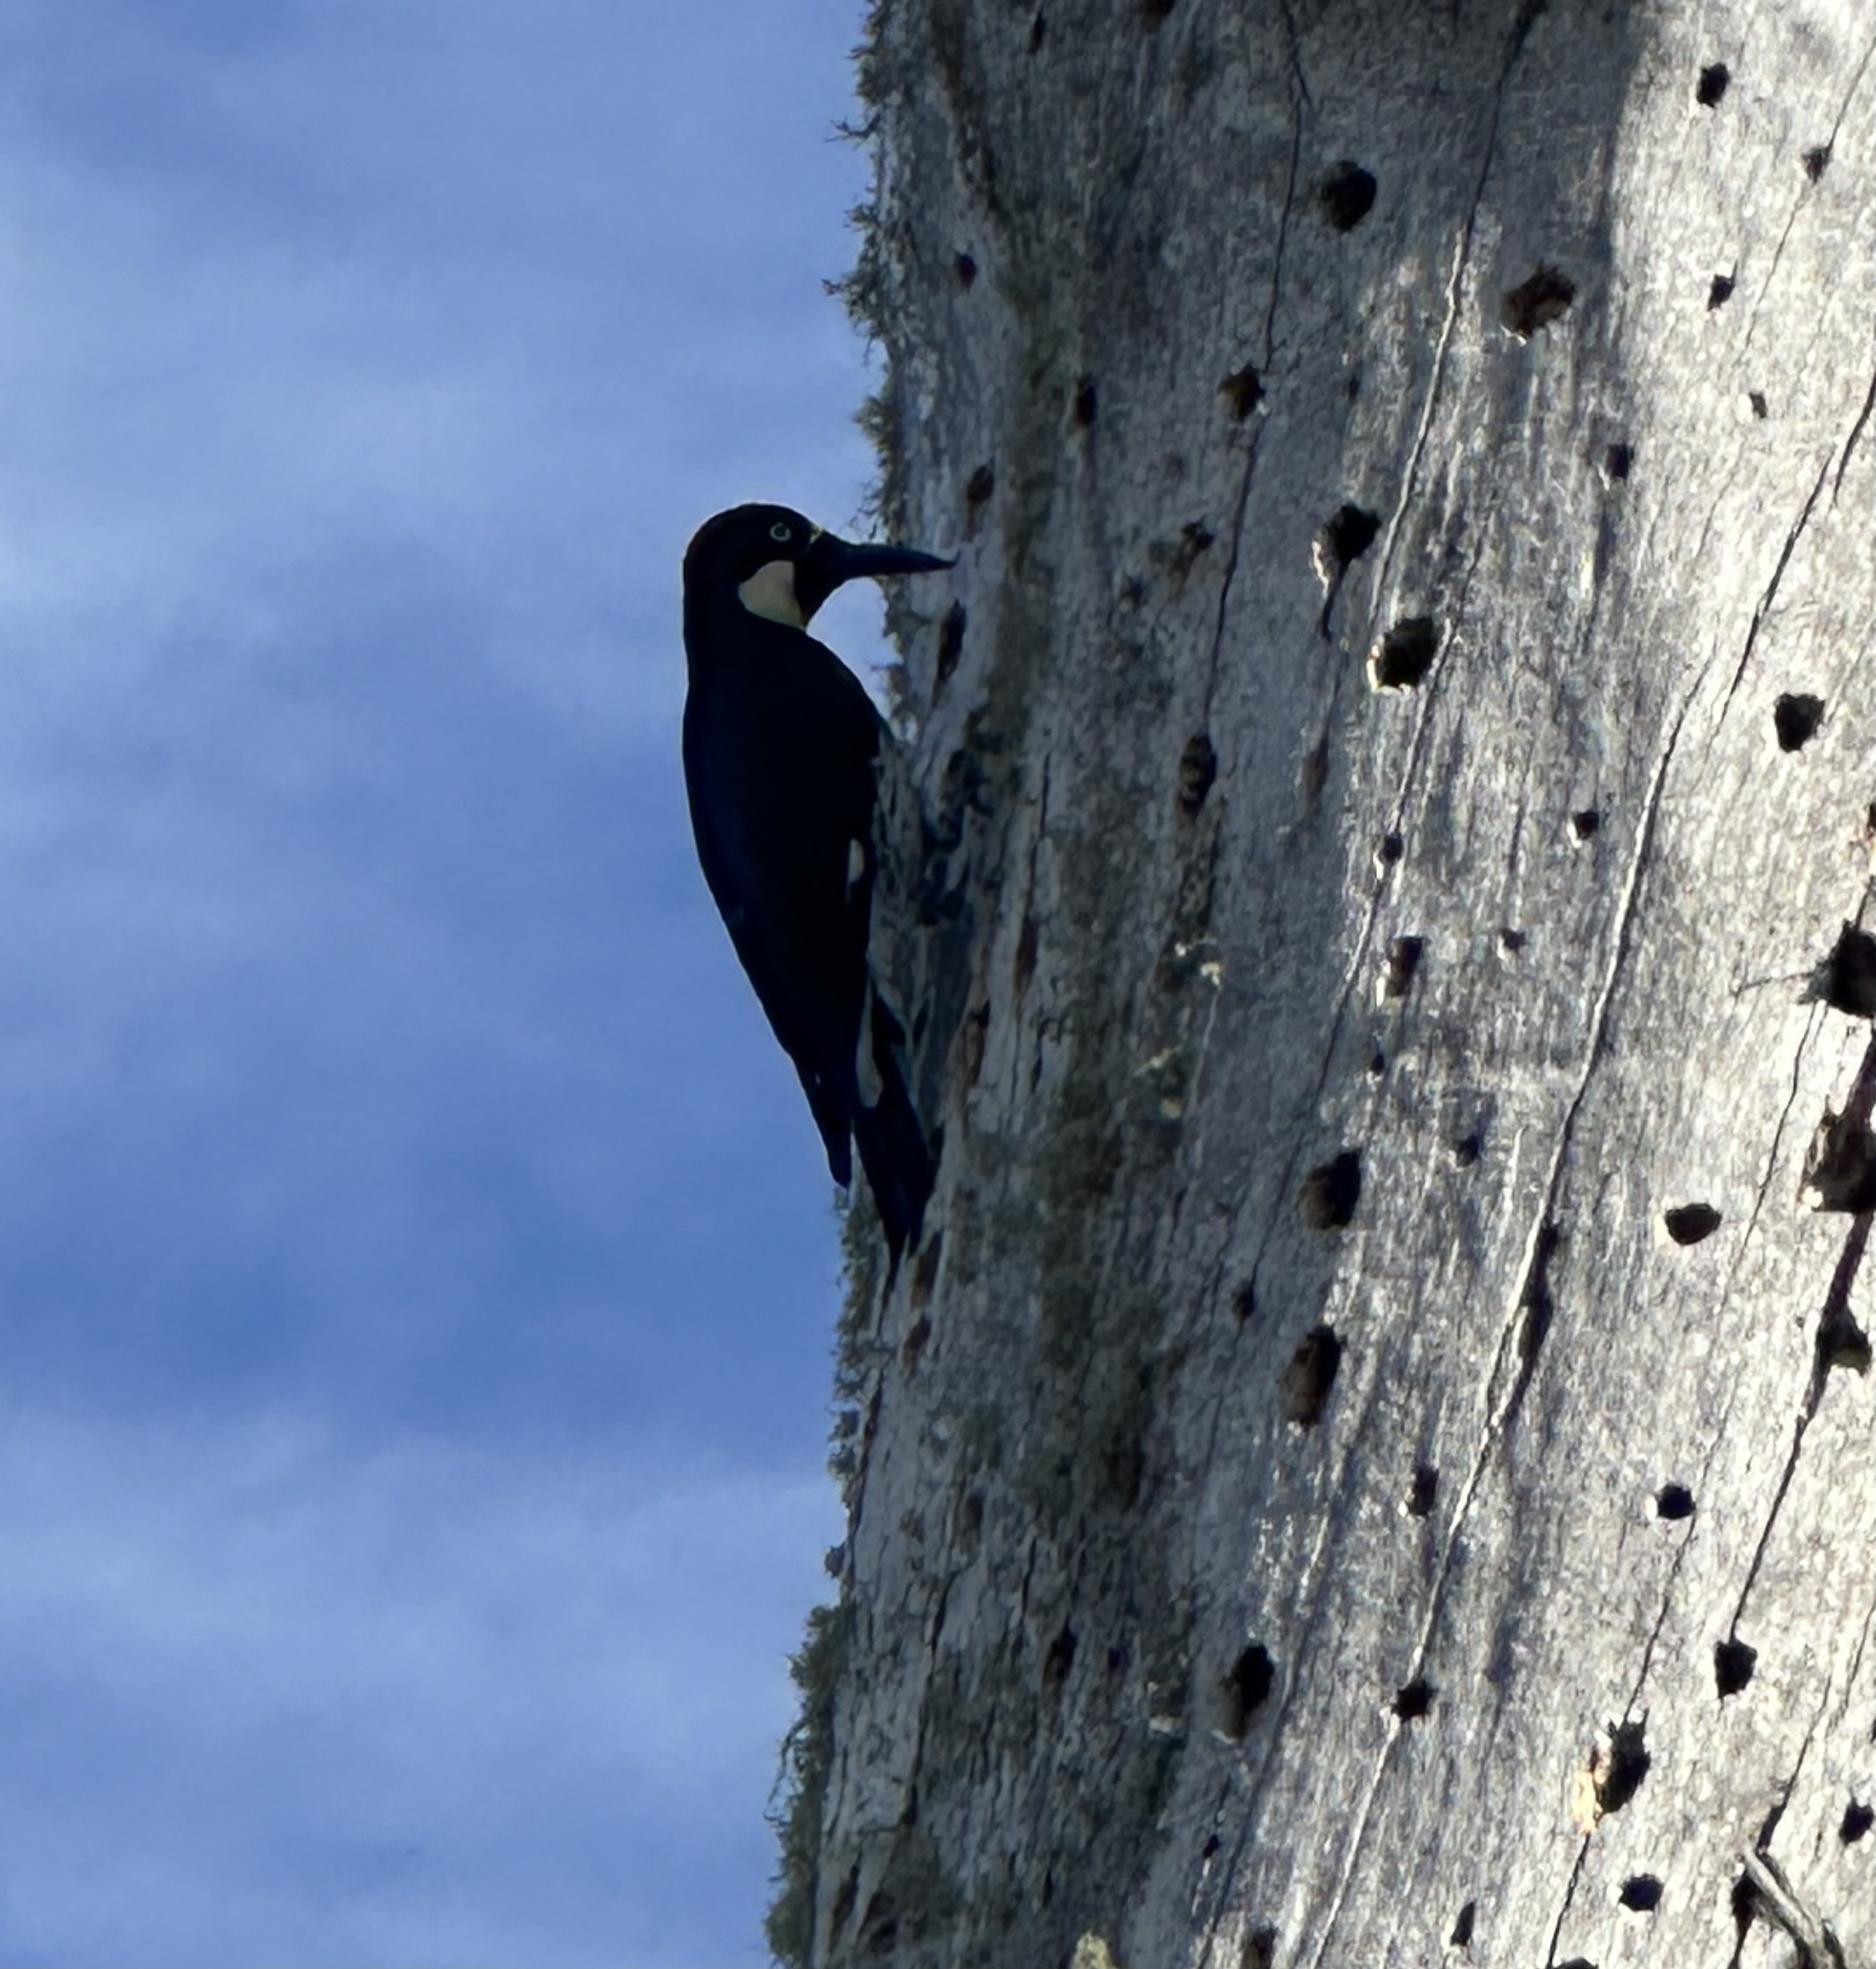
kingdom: Animalia
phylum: Chordata
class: Aves
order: Piciformes
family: Picidae
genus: Melanerpes
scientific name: Melanerpes formicivorus
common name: Acorn woodpecker
